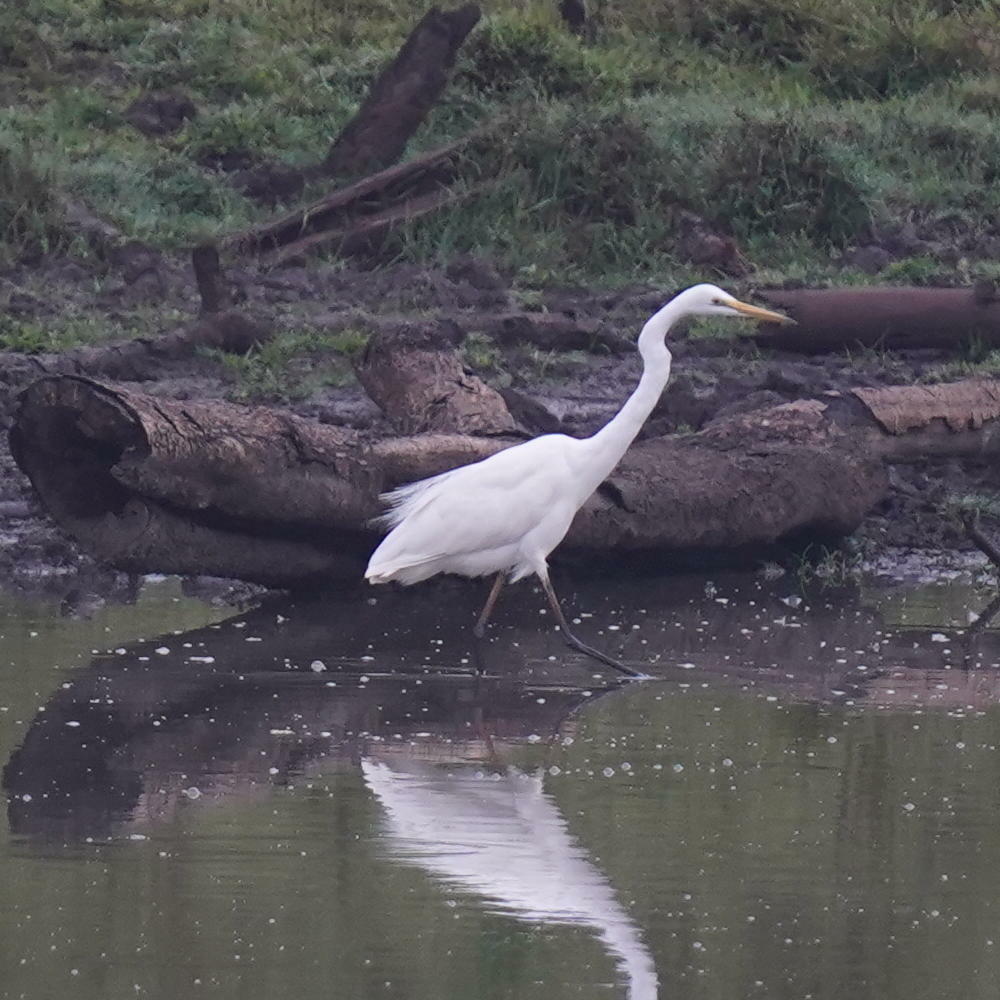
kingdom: Animalia
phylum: Chordata
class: Aves
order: Pelecaniformes
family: Ardeidae
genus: Ardea
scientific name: Ardea alba
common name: Great egret
